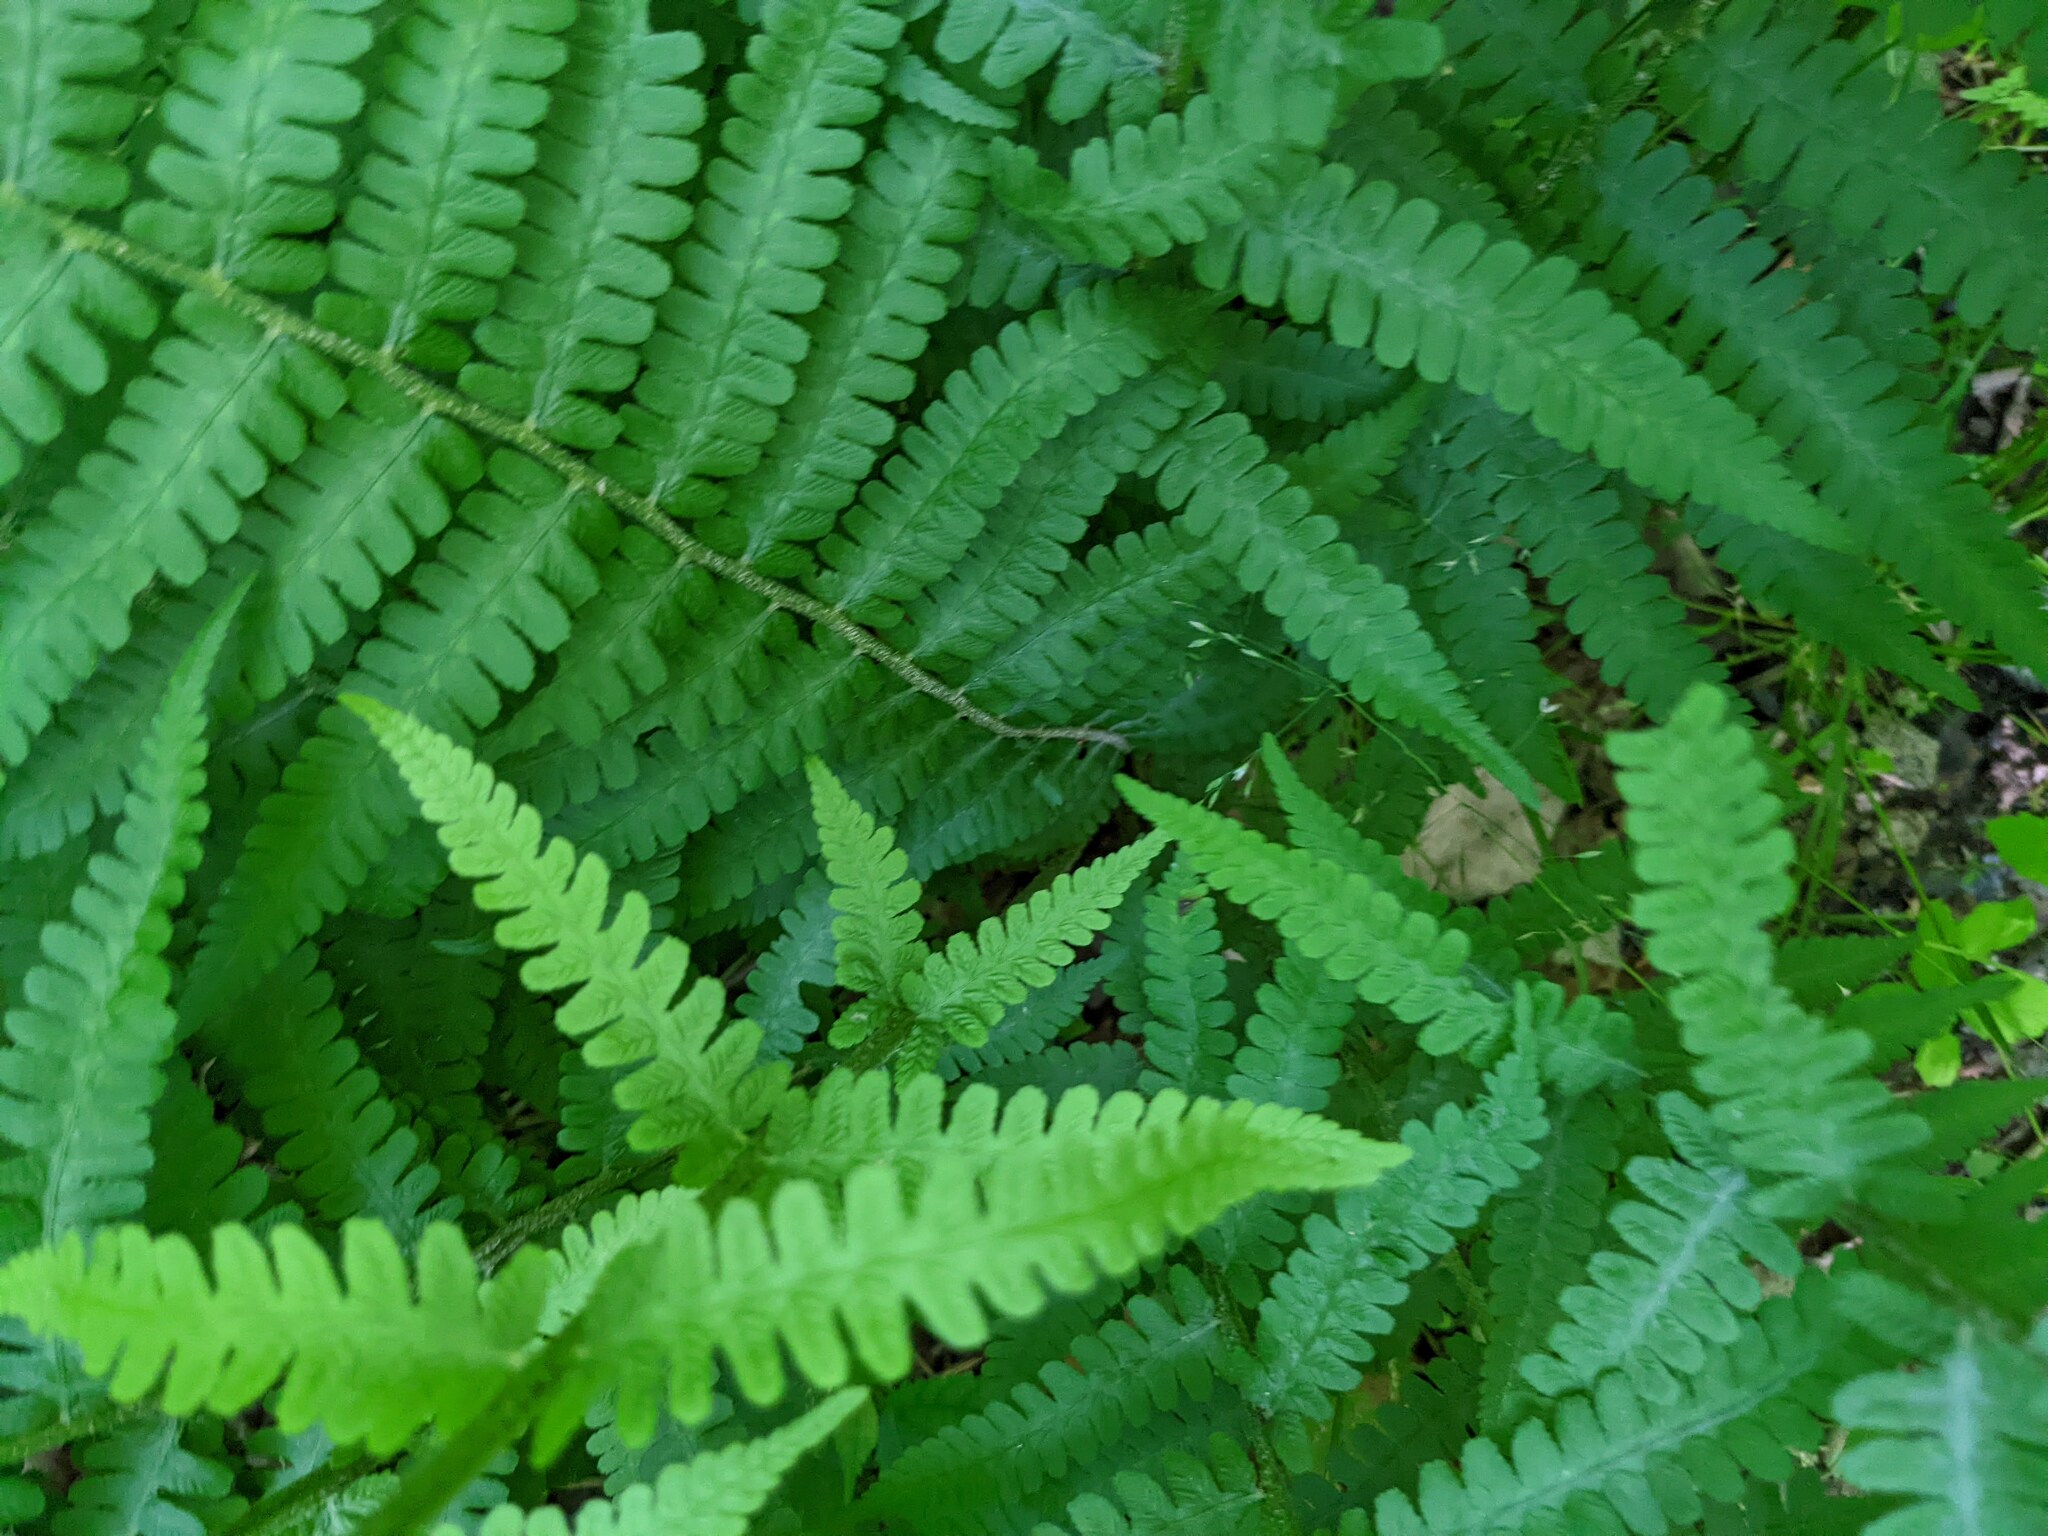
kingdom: Plantae
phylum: Tracheophyta
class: Polypodiopsida
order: Polypodiales
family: Athyriaceae
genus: Deparia
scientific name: Deparia acrostichoides
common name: Silver false spleenwort
